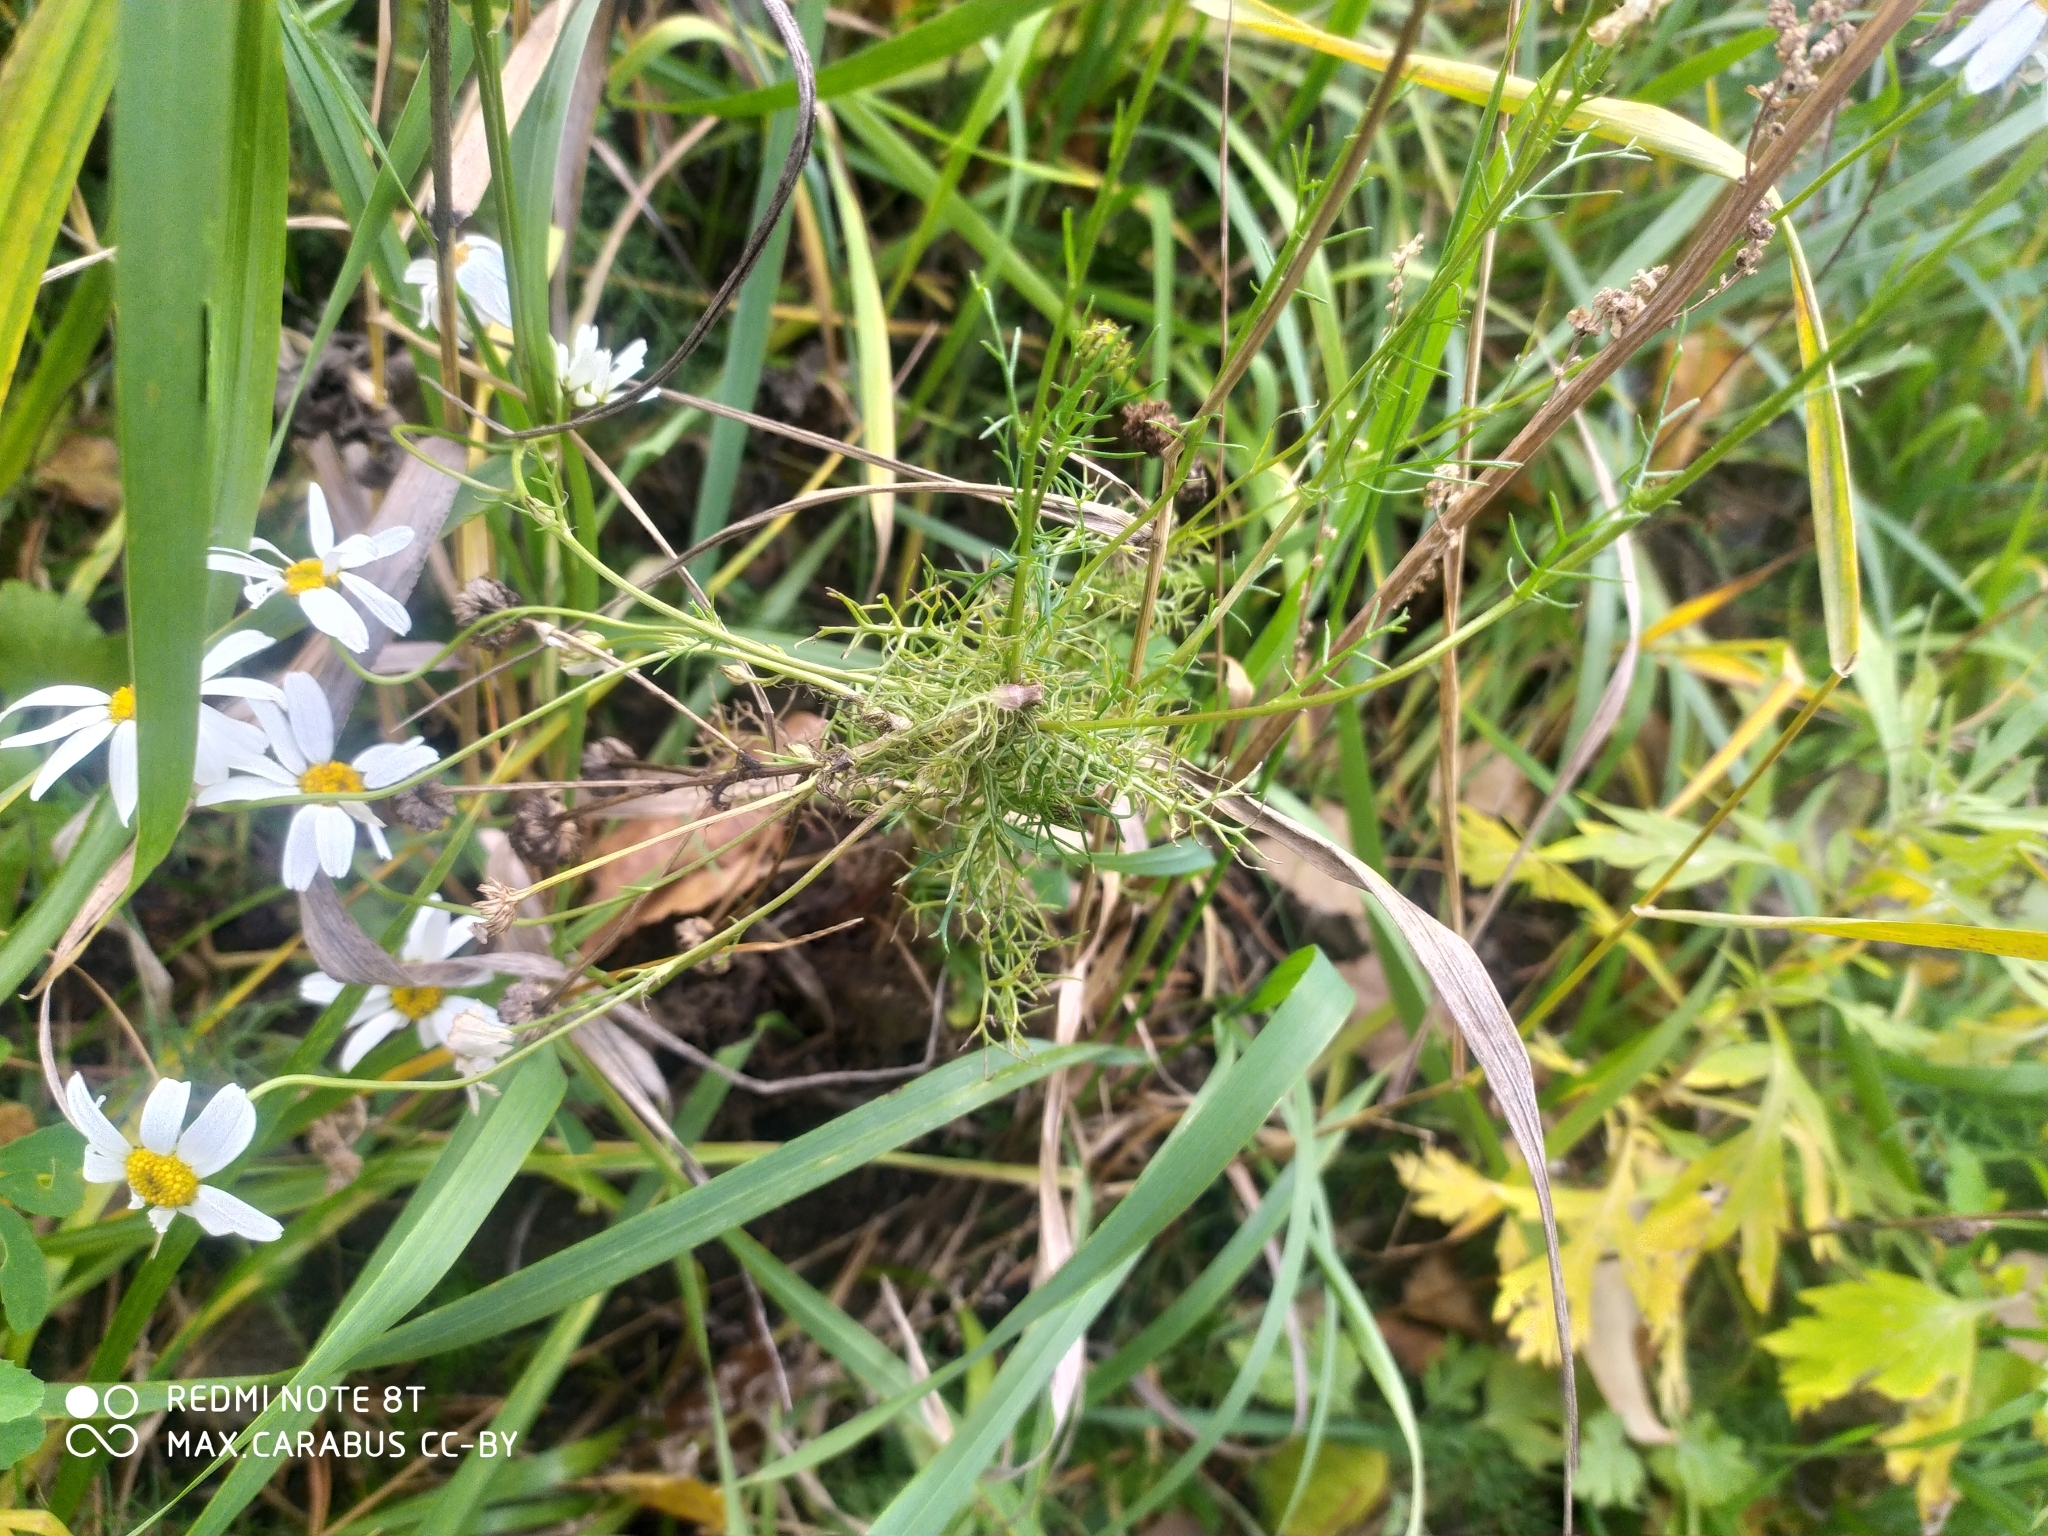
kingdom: Plantae
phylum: Tracheophyta
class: Magnoliopsida
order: Asterales
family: Asteraceae
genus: Tripleurospermum
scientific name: Tripleurospermum inodorum
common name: Scentless mayweed
